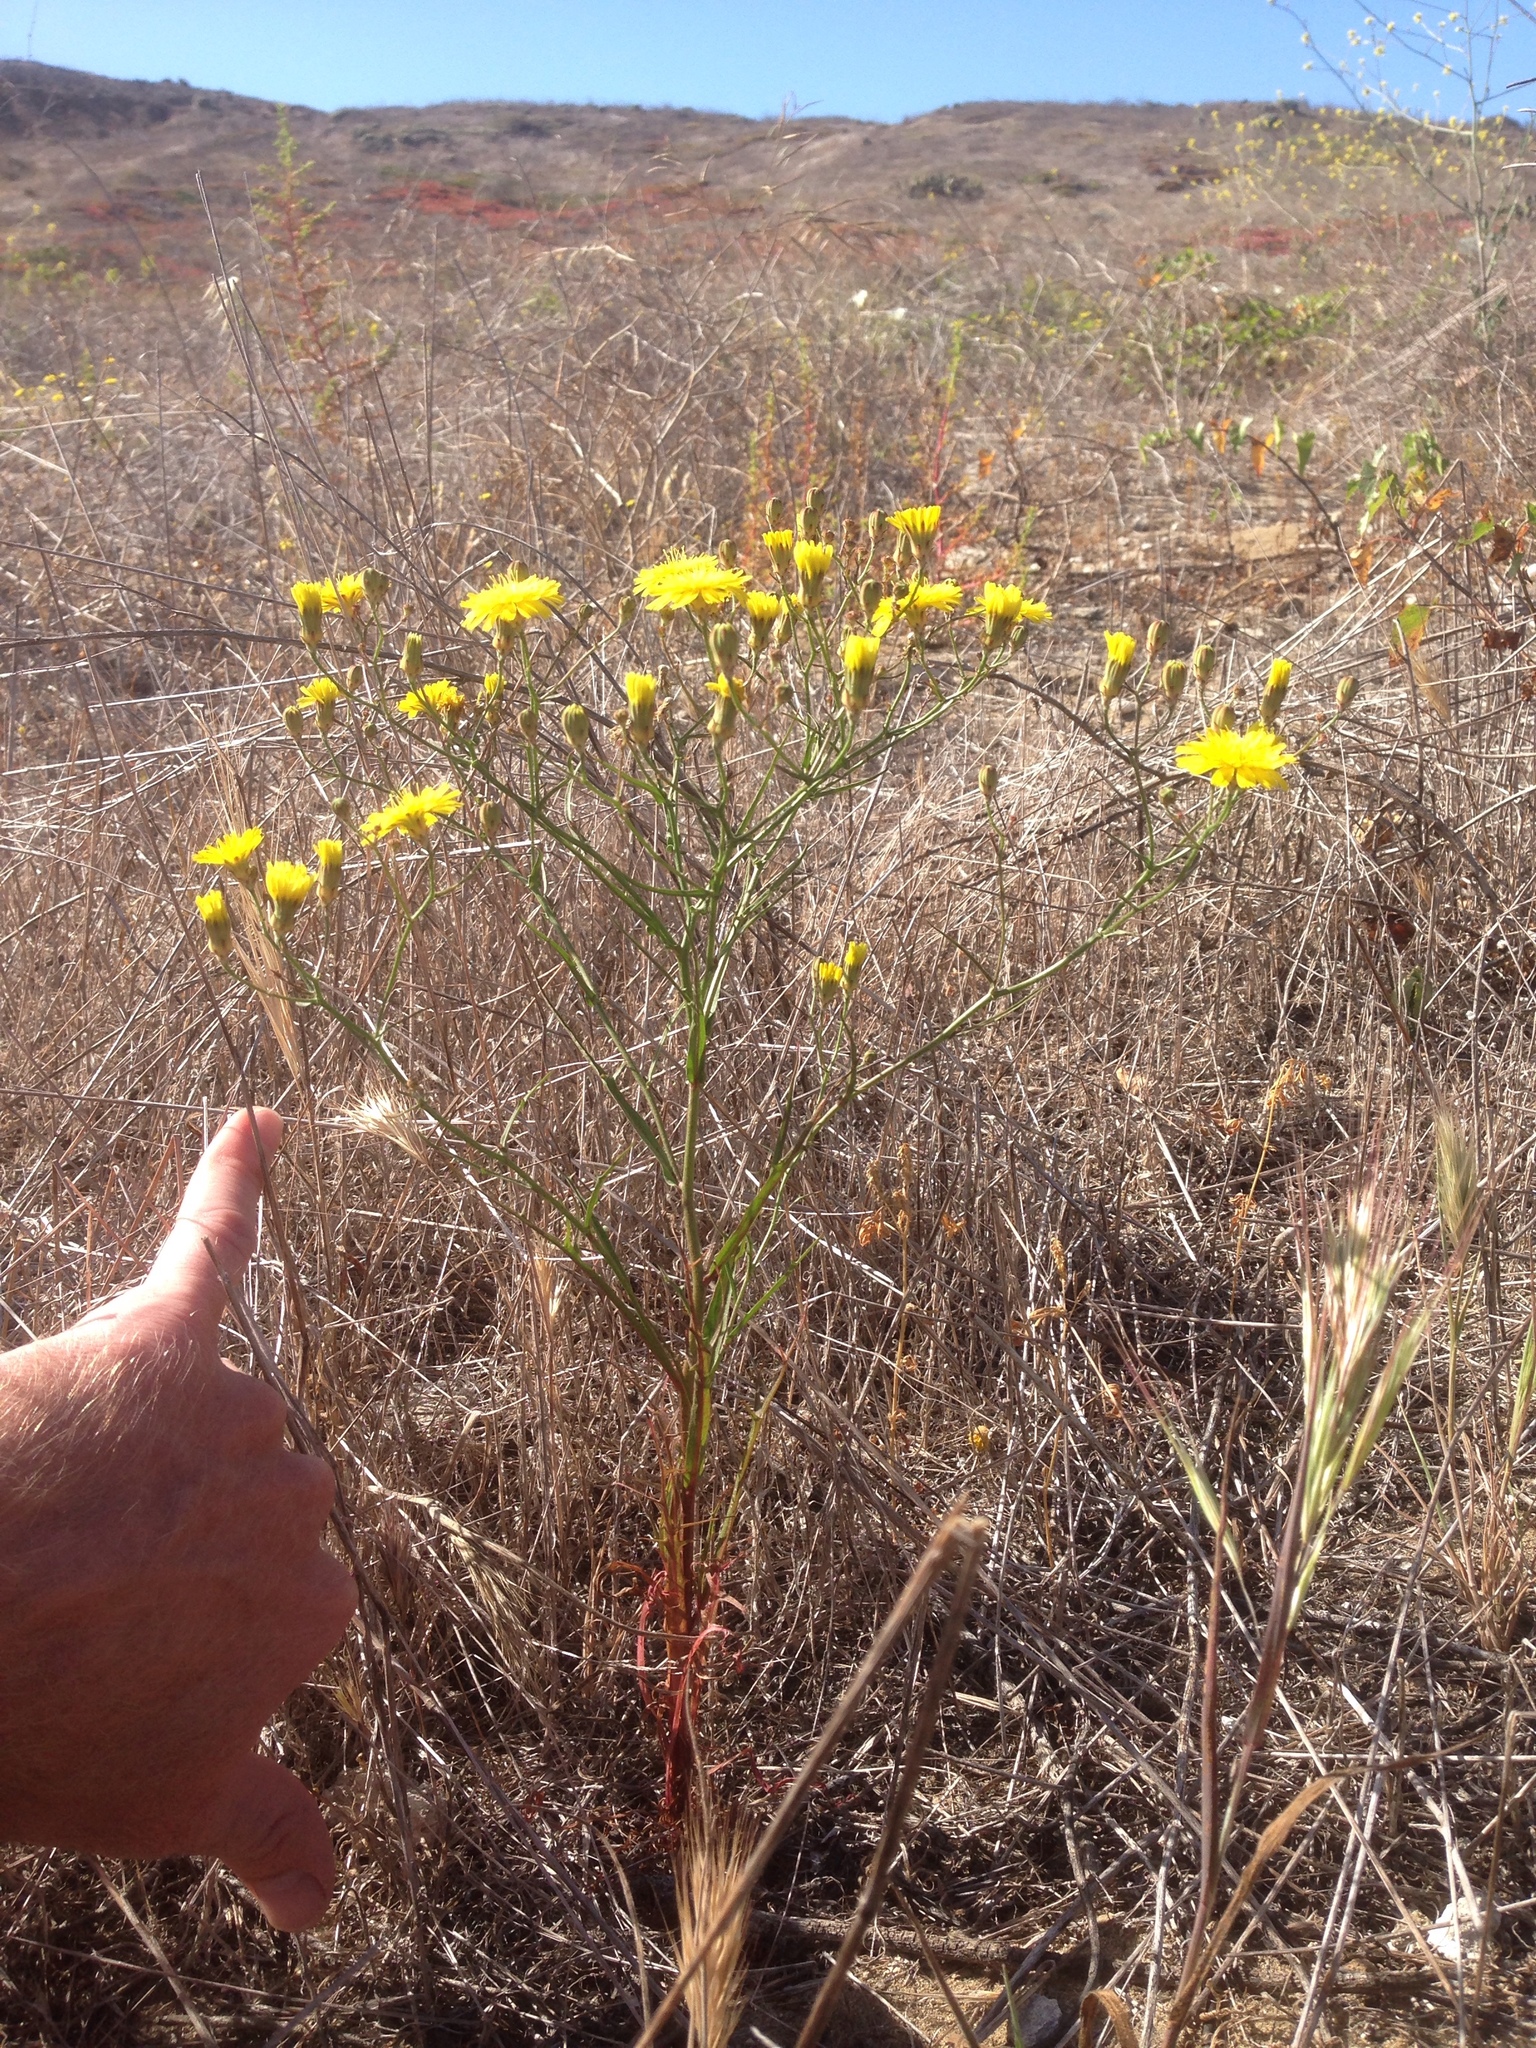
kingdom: Plantae
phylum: Tracheophyta
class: Magnoliopsida
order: Asterales
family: Asteraceae
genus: Malacothrix
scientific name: Malacothrix foliosa
